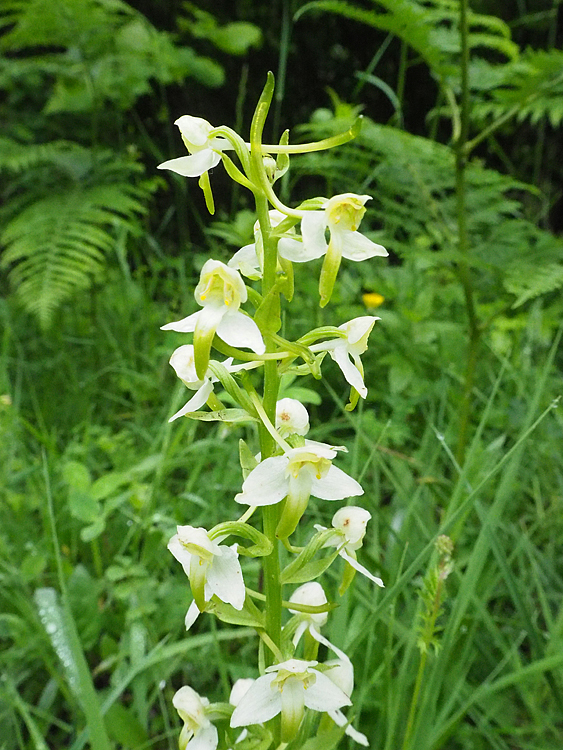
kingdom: Plantae
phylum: Tracheophyta
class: Liliopsida
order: Asparagales
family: Orchidaceae
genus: Platanthera
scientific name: Platanthera chlorantha
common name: Greater butterfly-orchid
